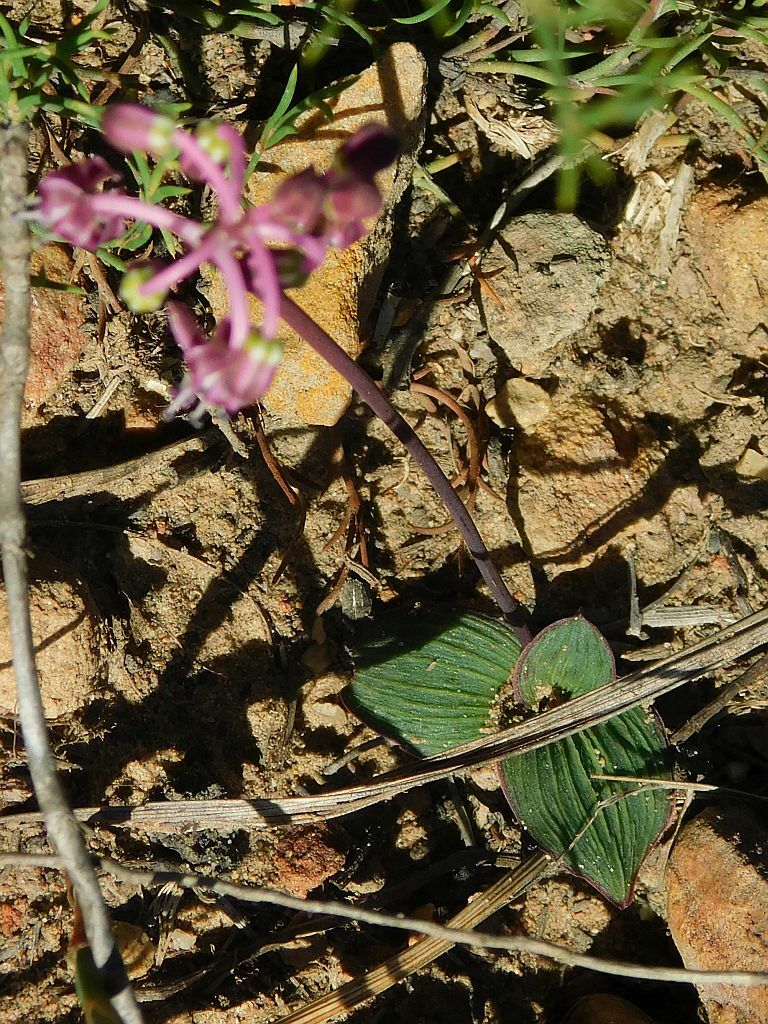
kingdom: Plantae
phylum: Tracheophyta
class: Liliopsida
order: Asparagales
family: Asparagaceae
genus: Ledebouria
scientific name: Ledebouria ovalifolia
